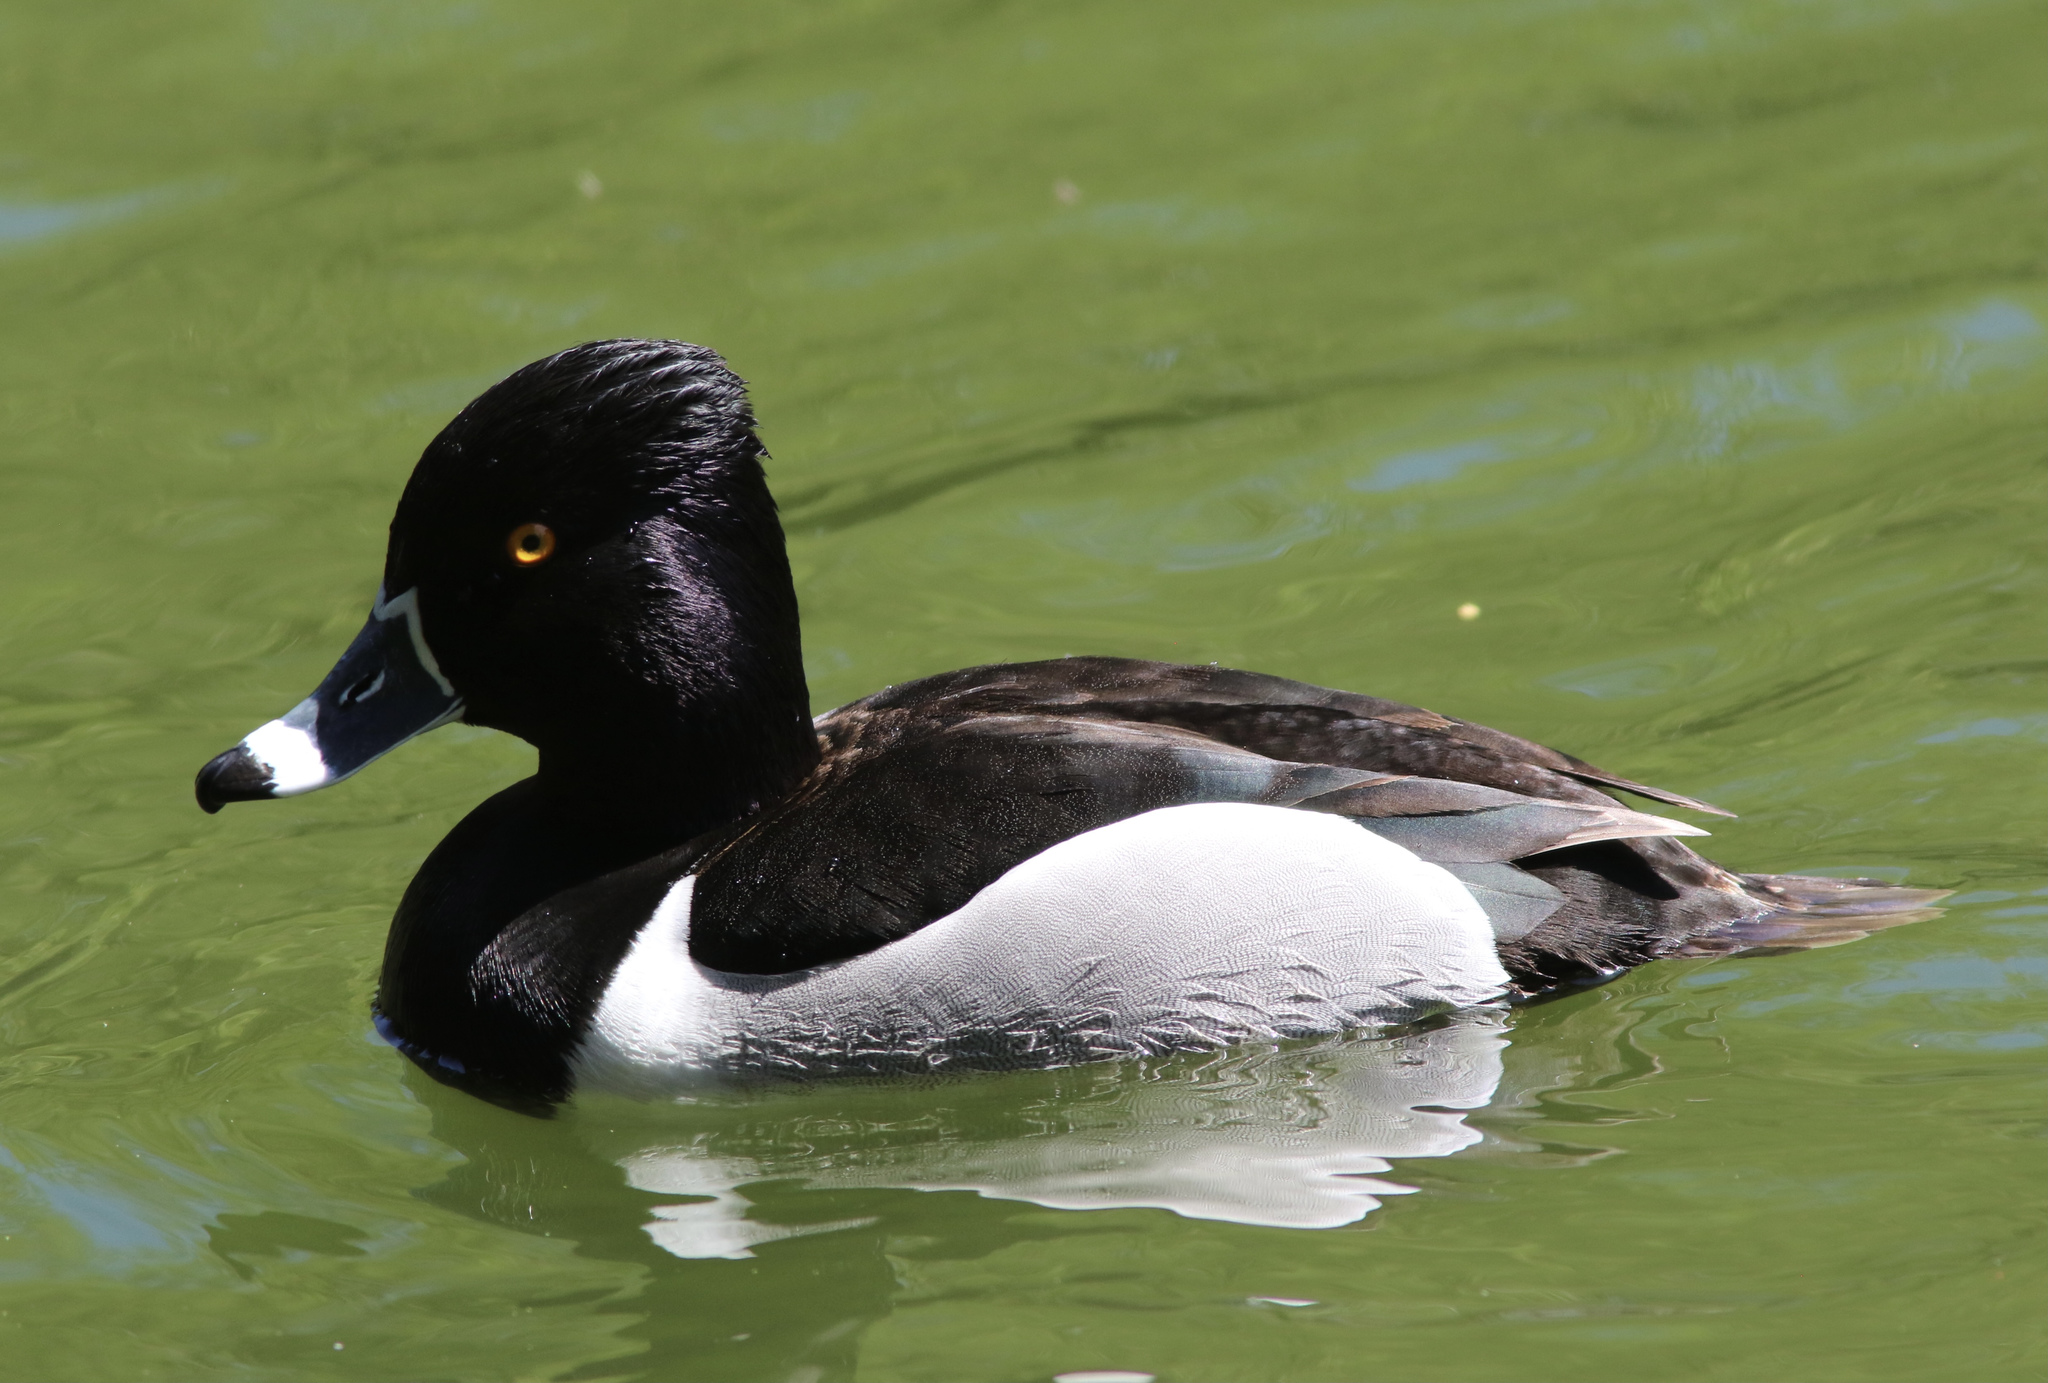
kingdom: Animalia
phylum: Chordata
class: Aves
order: Anseriformes
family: Anatidae
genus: Aythya
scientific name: Aythya collaris
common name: Ring-necked duck
